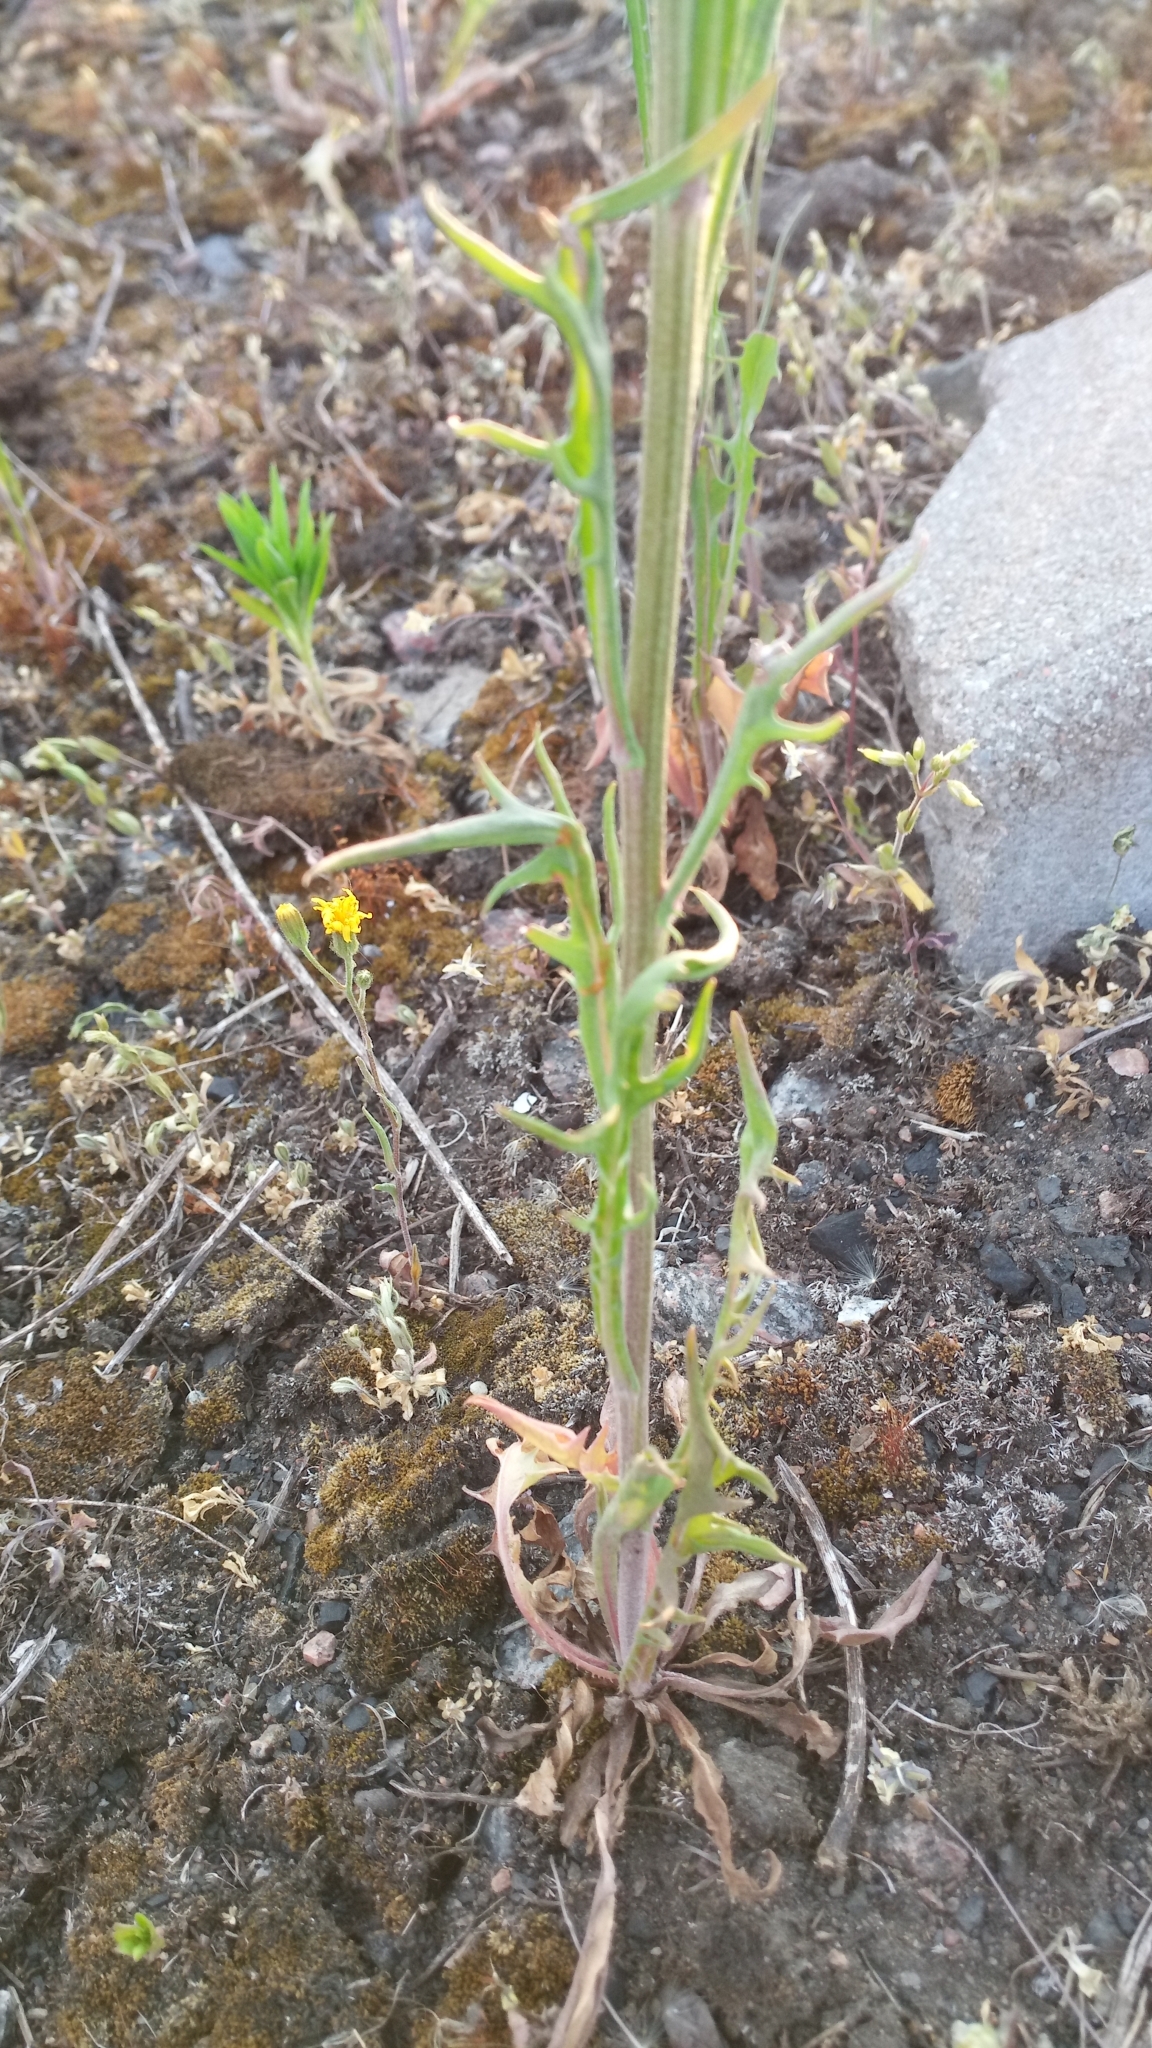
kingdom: Plantae
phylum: Tracheophyta
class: Magnoliopsida
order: Asterales
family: Asteraceae
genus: Crepis
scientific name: Crepis tectorum
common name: Narrow-leaved hawk's-beard
